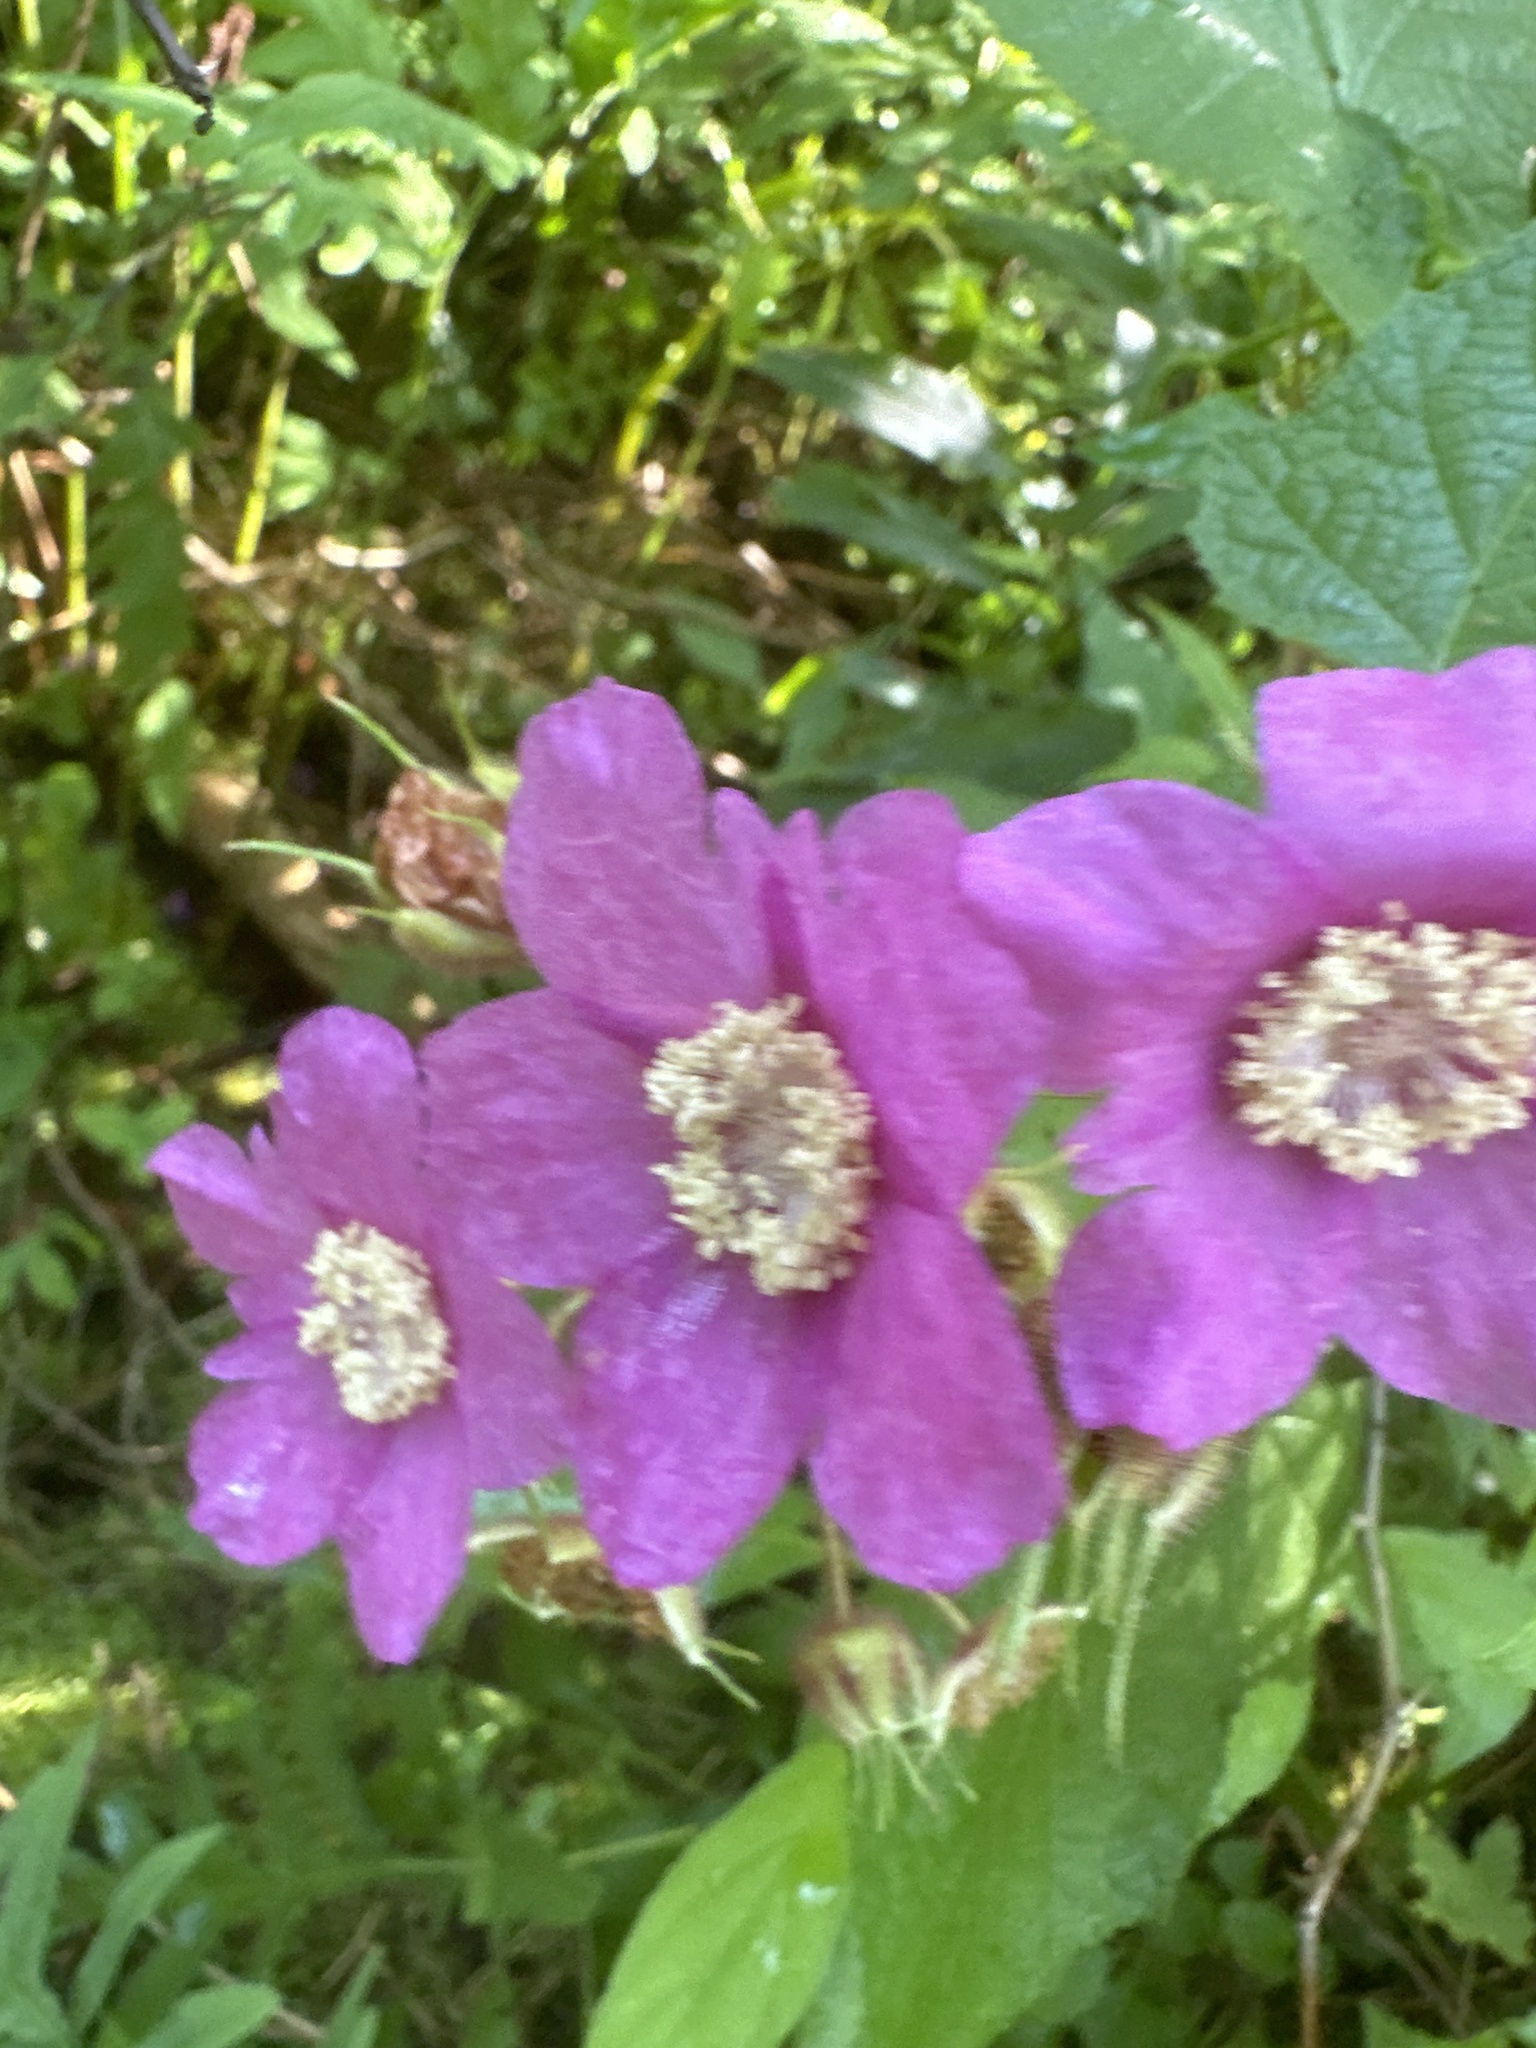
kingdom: Plantae
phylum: Tracheophyta
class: Magnoliopsida
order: Rosales
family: Rosaceae
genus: Rubus
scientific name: Rubus odoratus
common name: Purple-flowered raspberry
